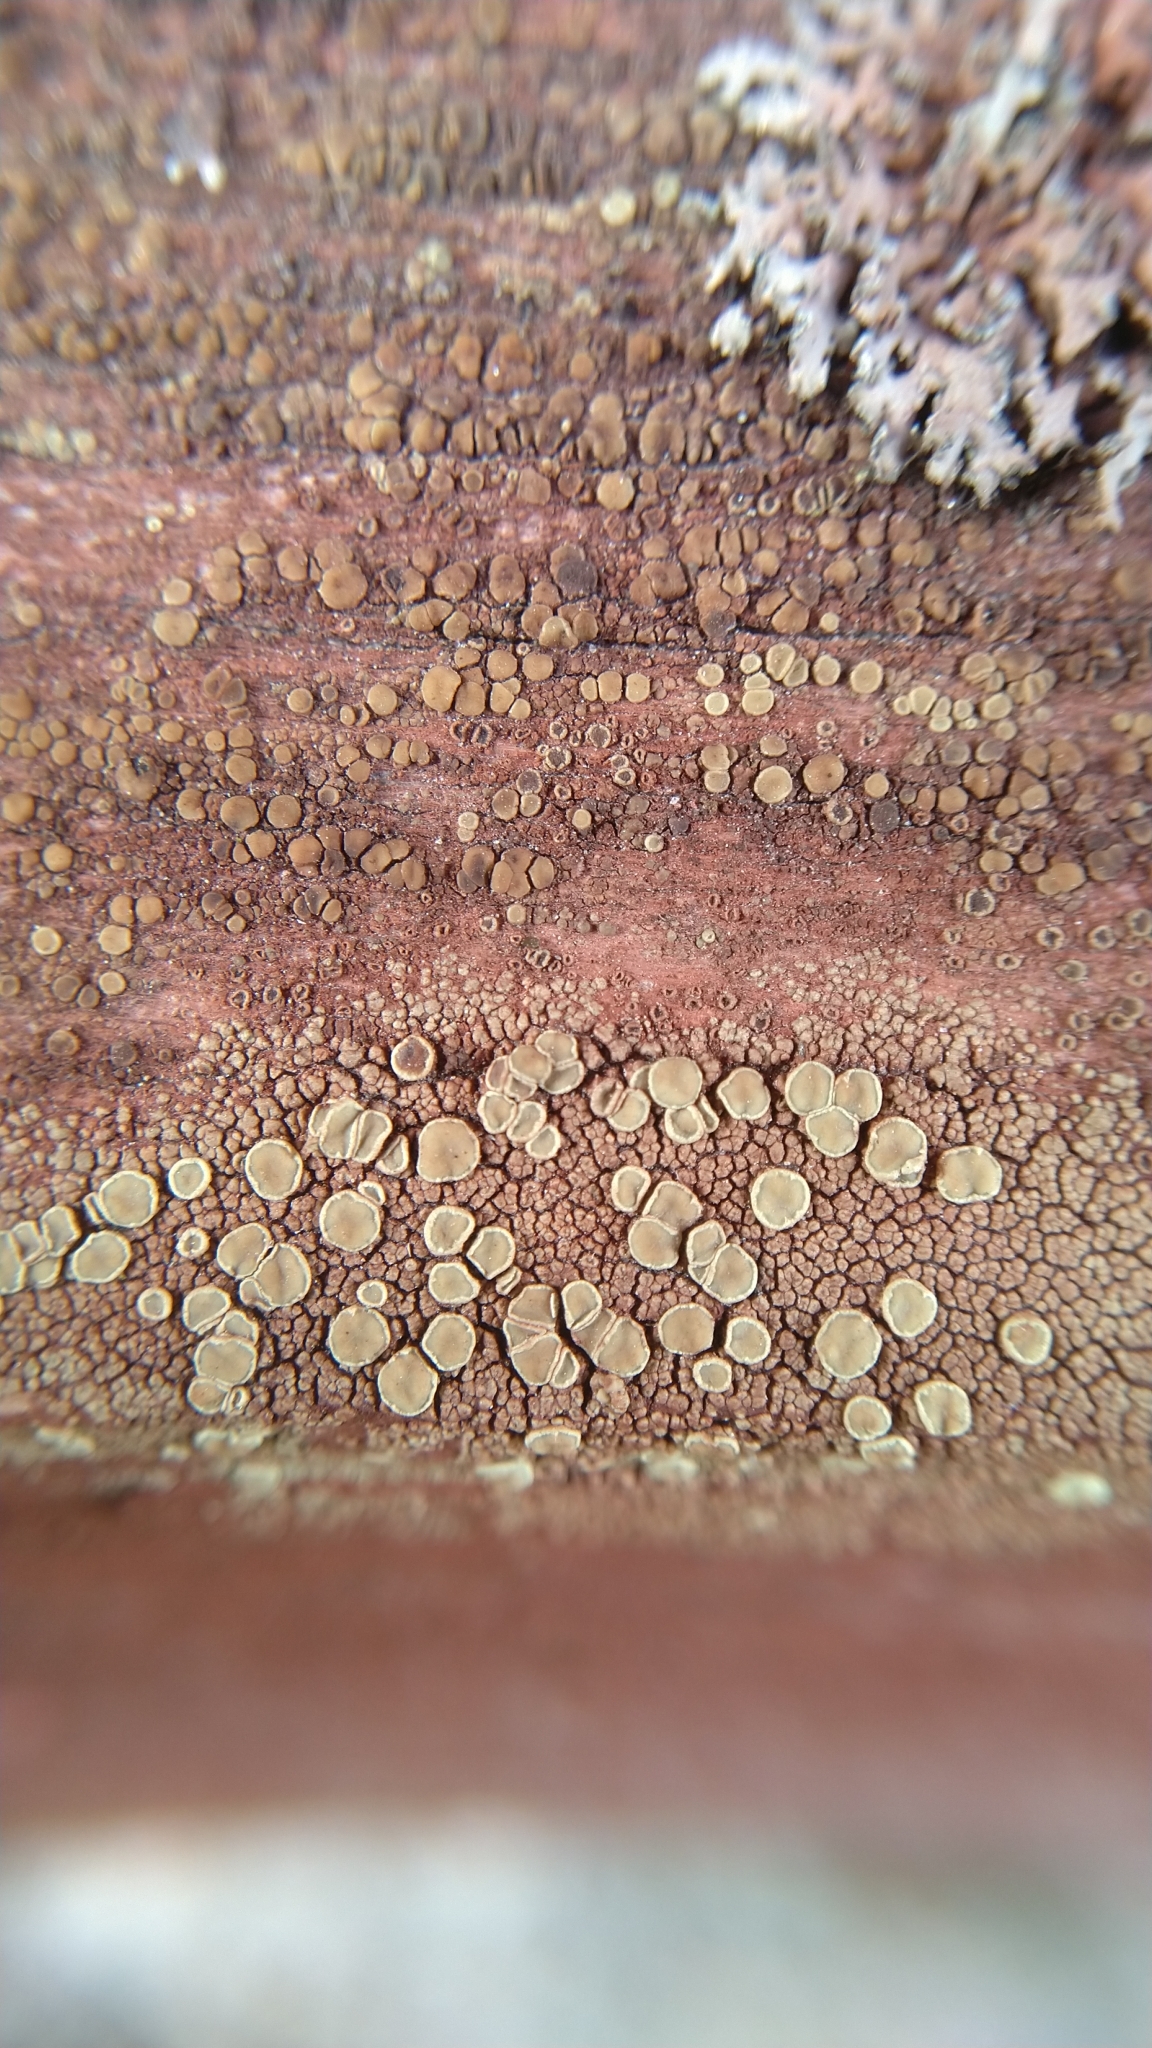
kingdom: Fungi
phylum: Ascomycota
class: Lecanoromycetes
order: Lecanorales
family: Lecanoraceae
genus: Straminella
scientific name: Straminella varia
